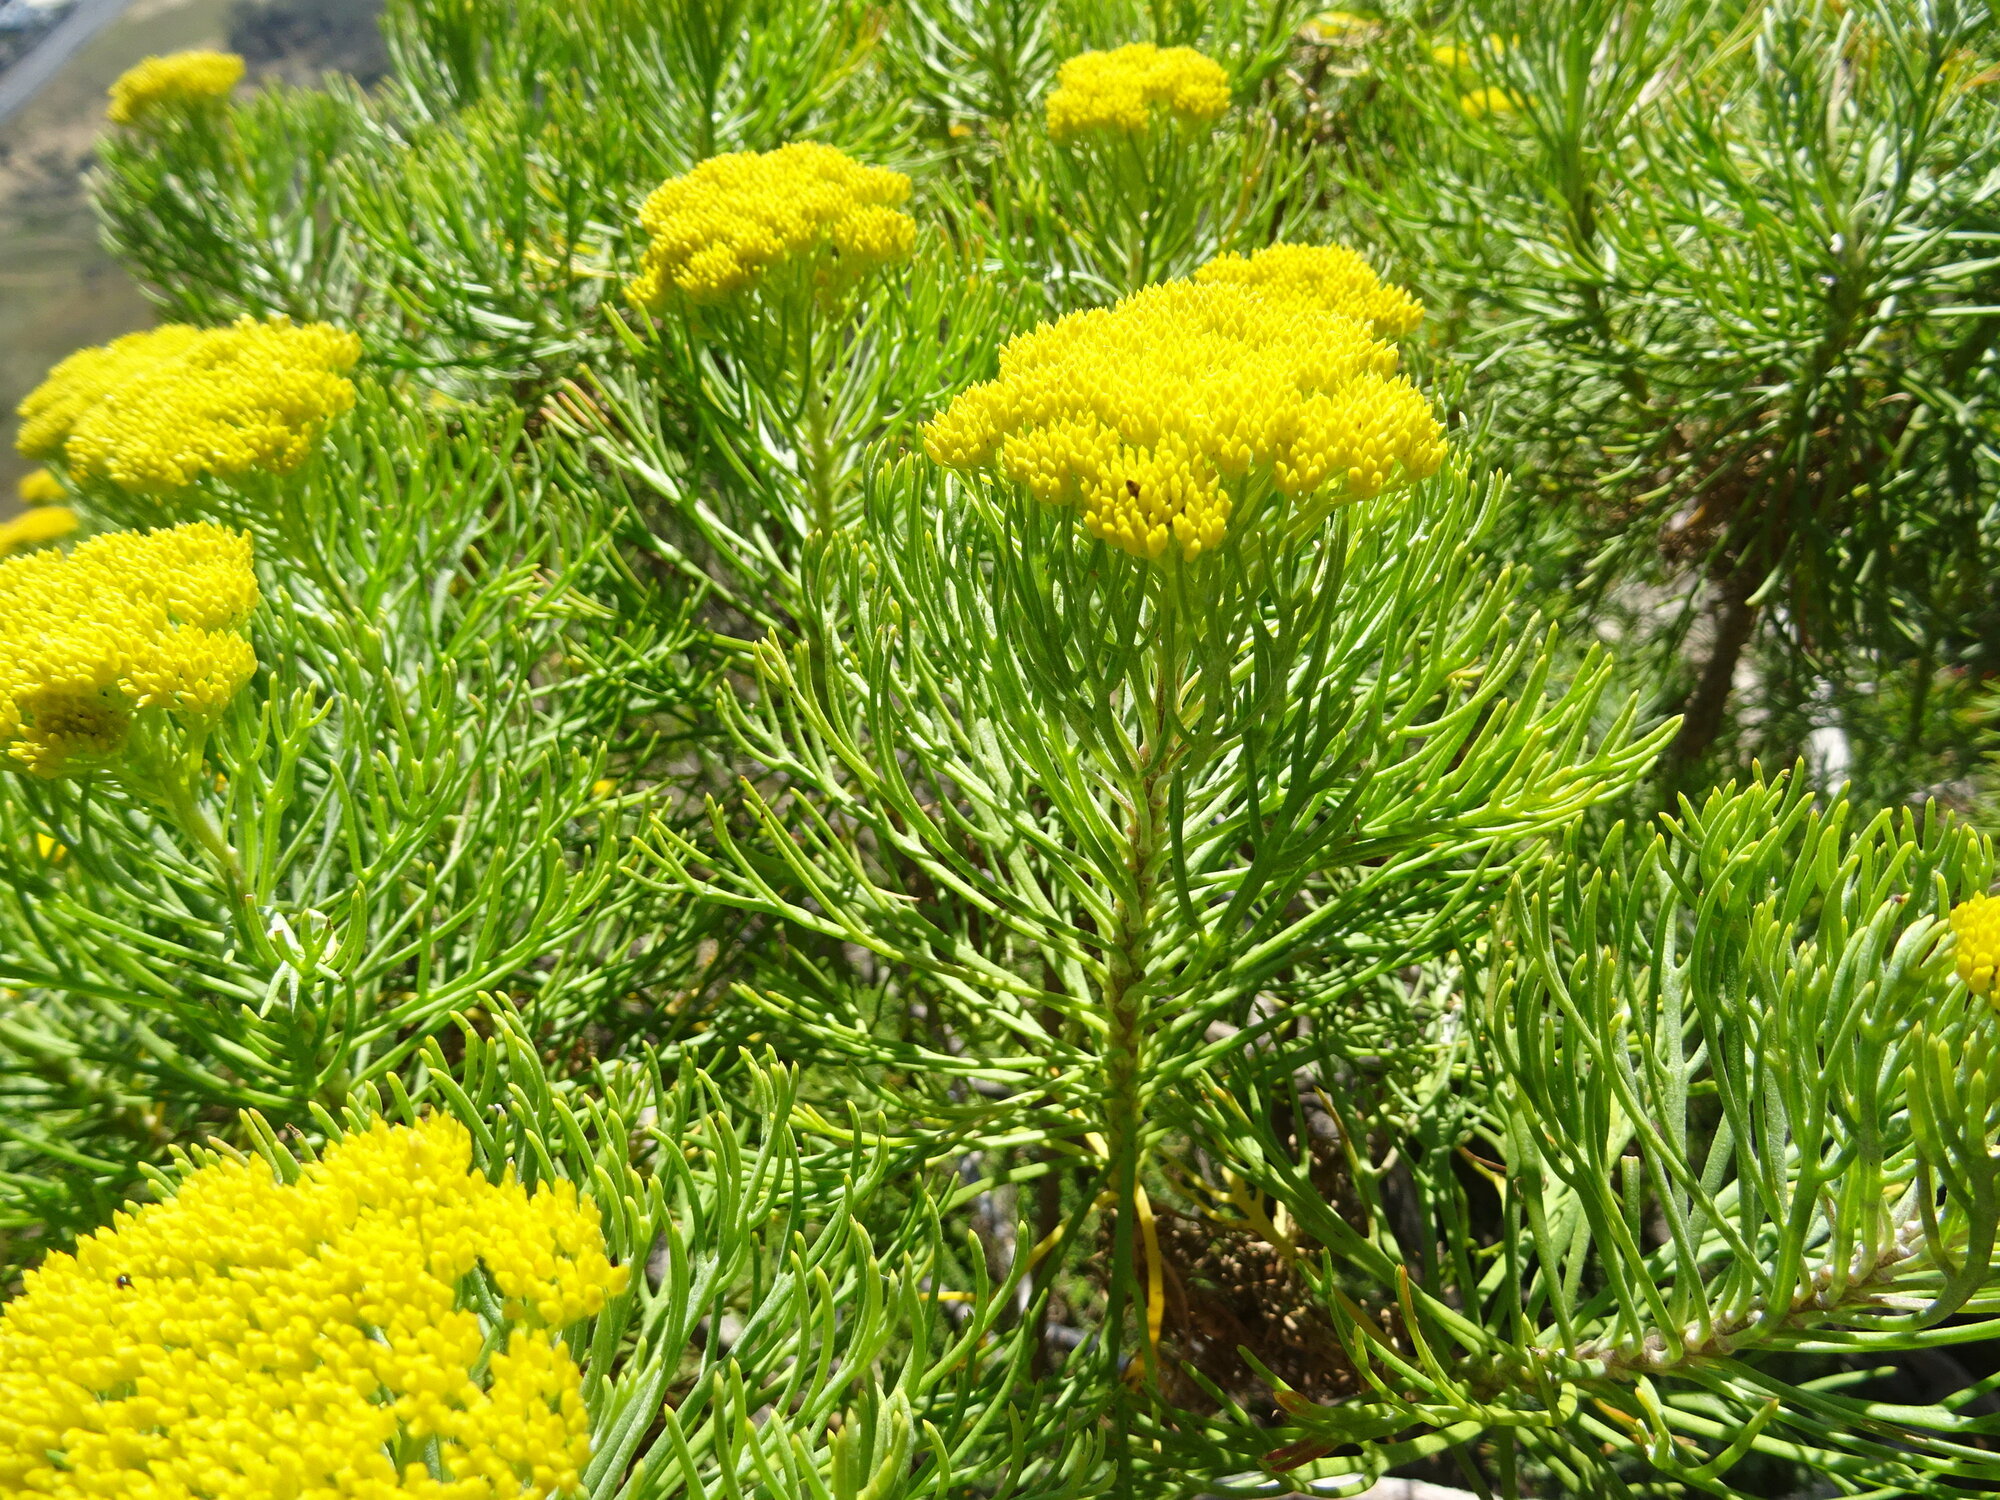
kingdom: Plantae
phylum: Tracheophyta
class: Magnoliopsida
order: Asterales
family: Asteraceae
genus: Hymenolepis
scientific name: Hymenolepis crithmifolia
